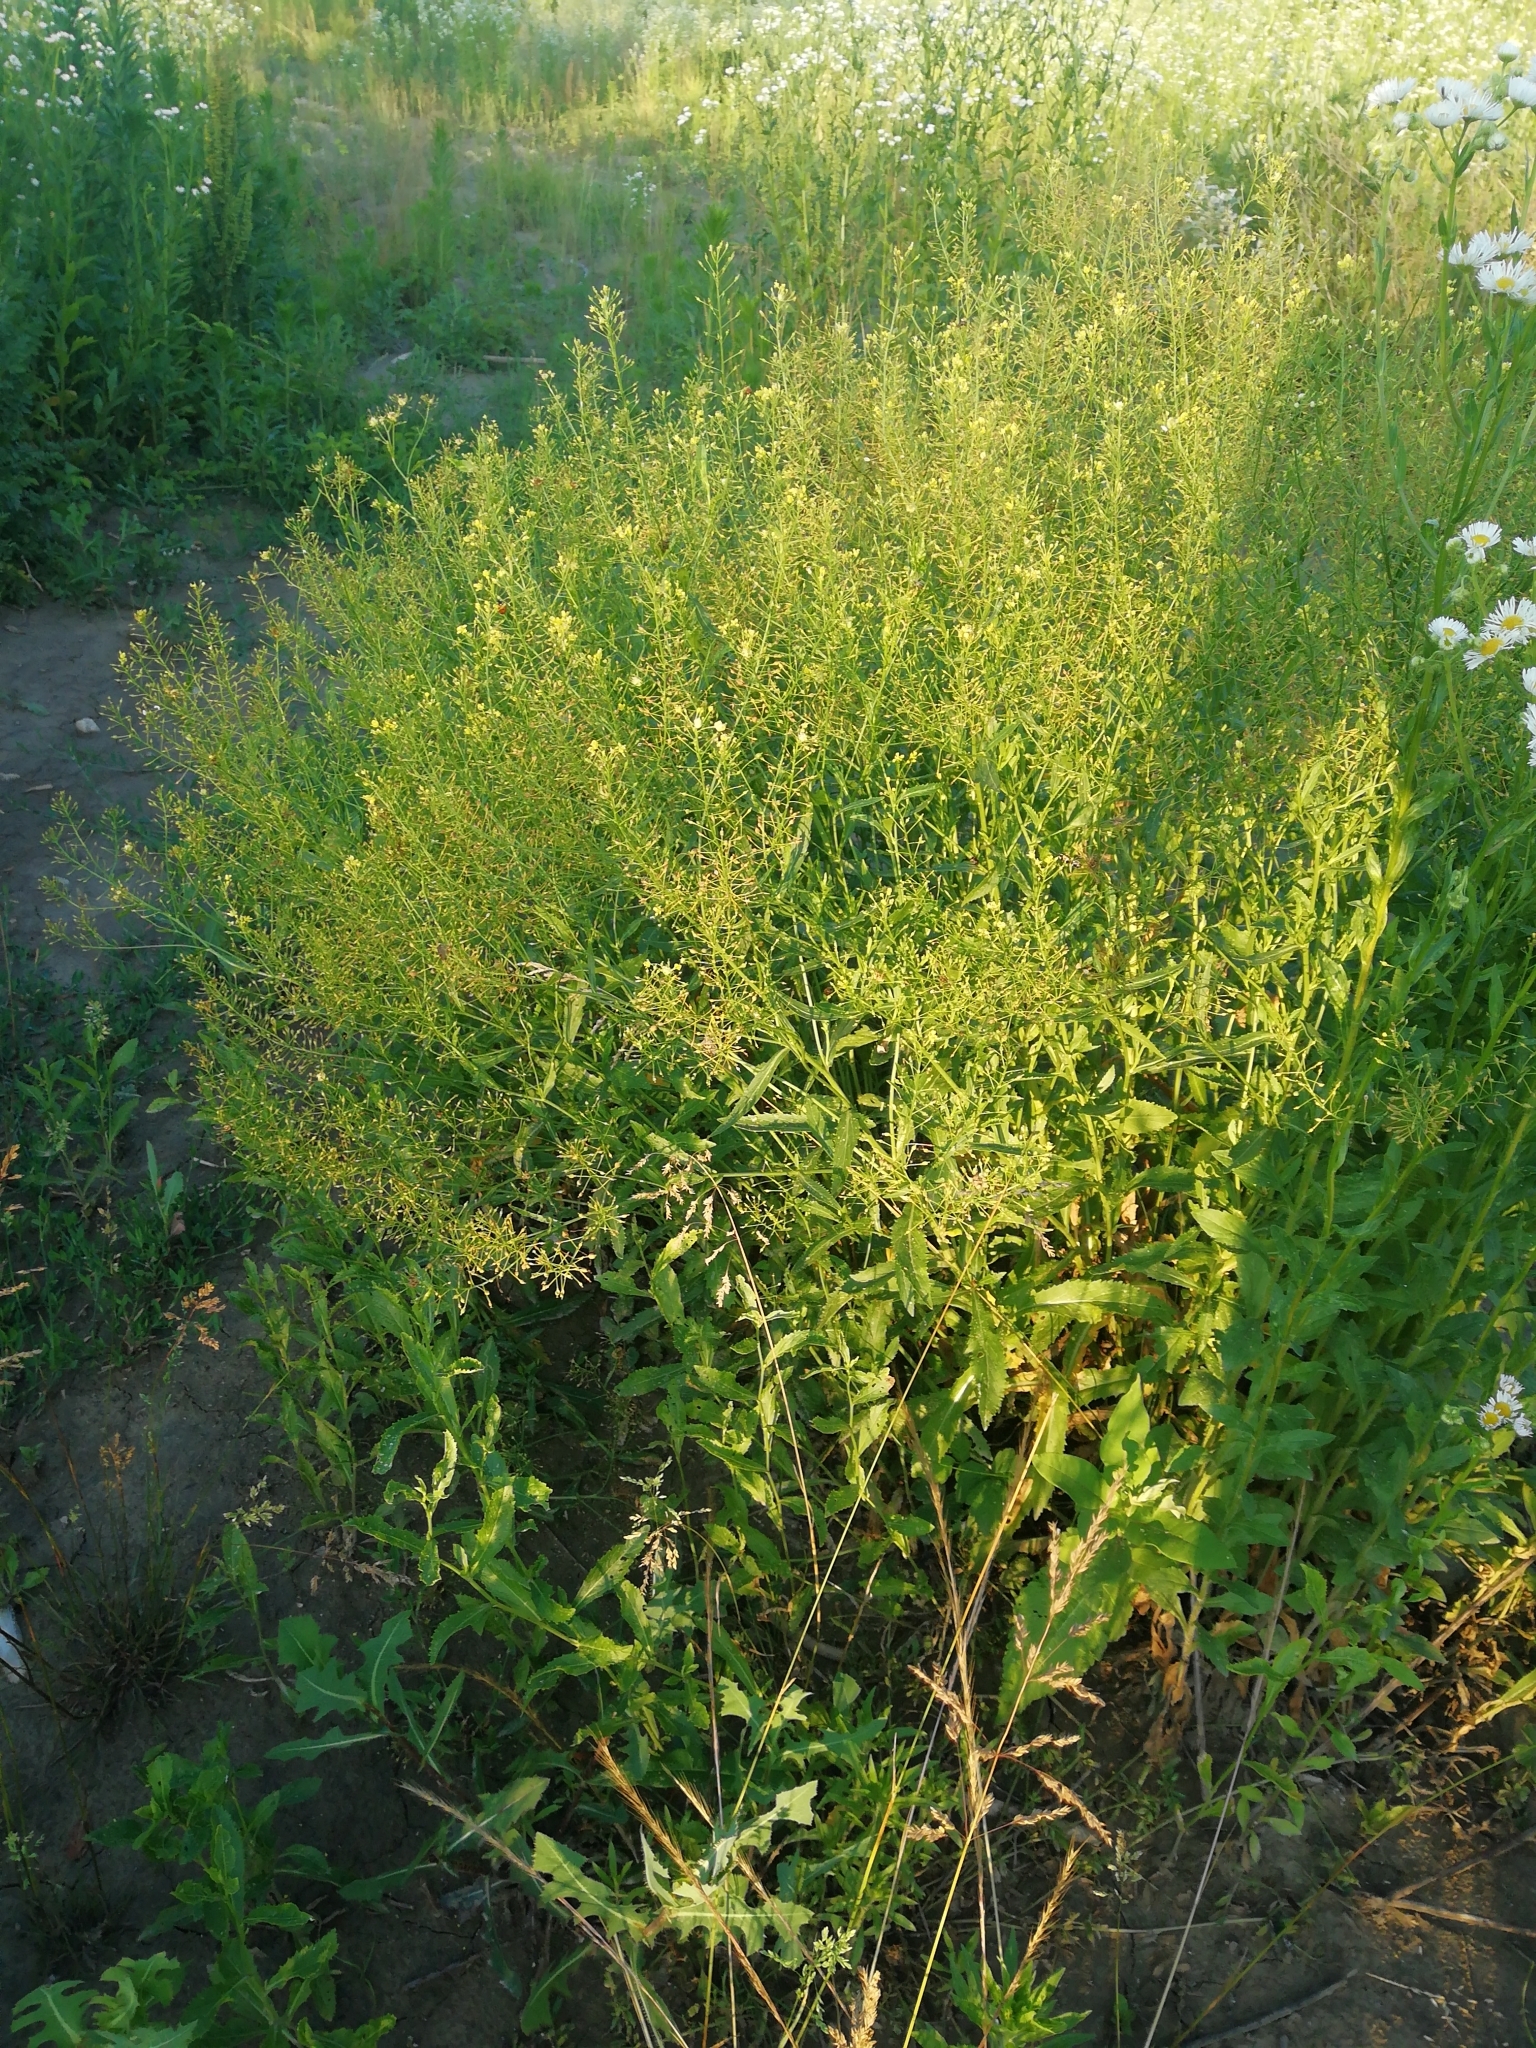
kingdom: Plantae
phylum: Tracheophyta
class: Magnoliopsida
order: Brassicales
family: Brassicaceae
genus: Rorippa
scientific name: Rorippa austriaca
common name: Austrian yellow-cress
